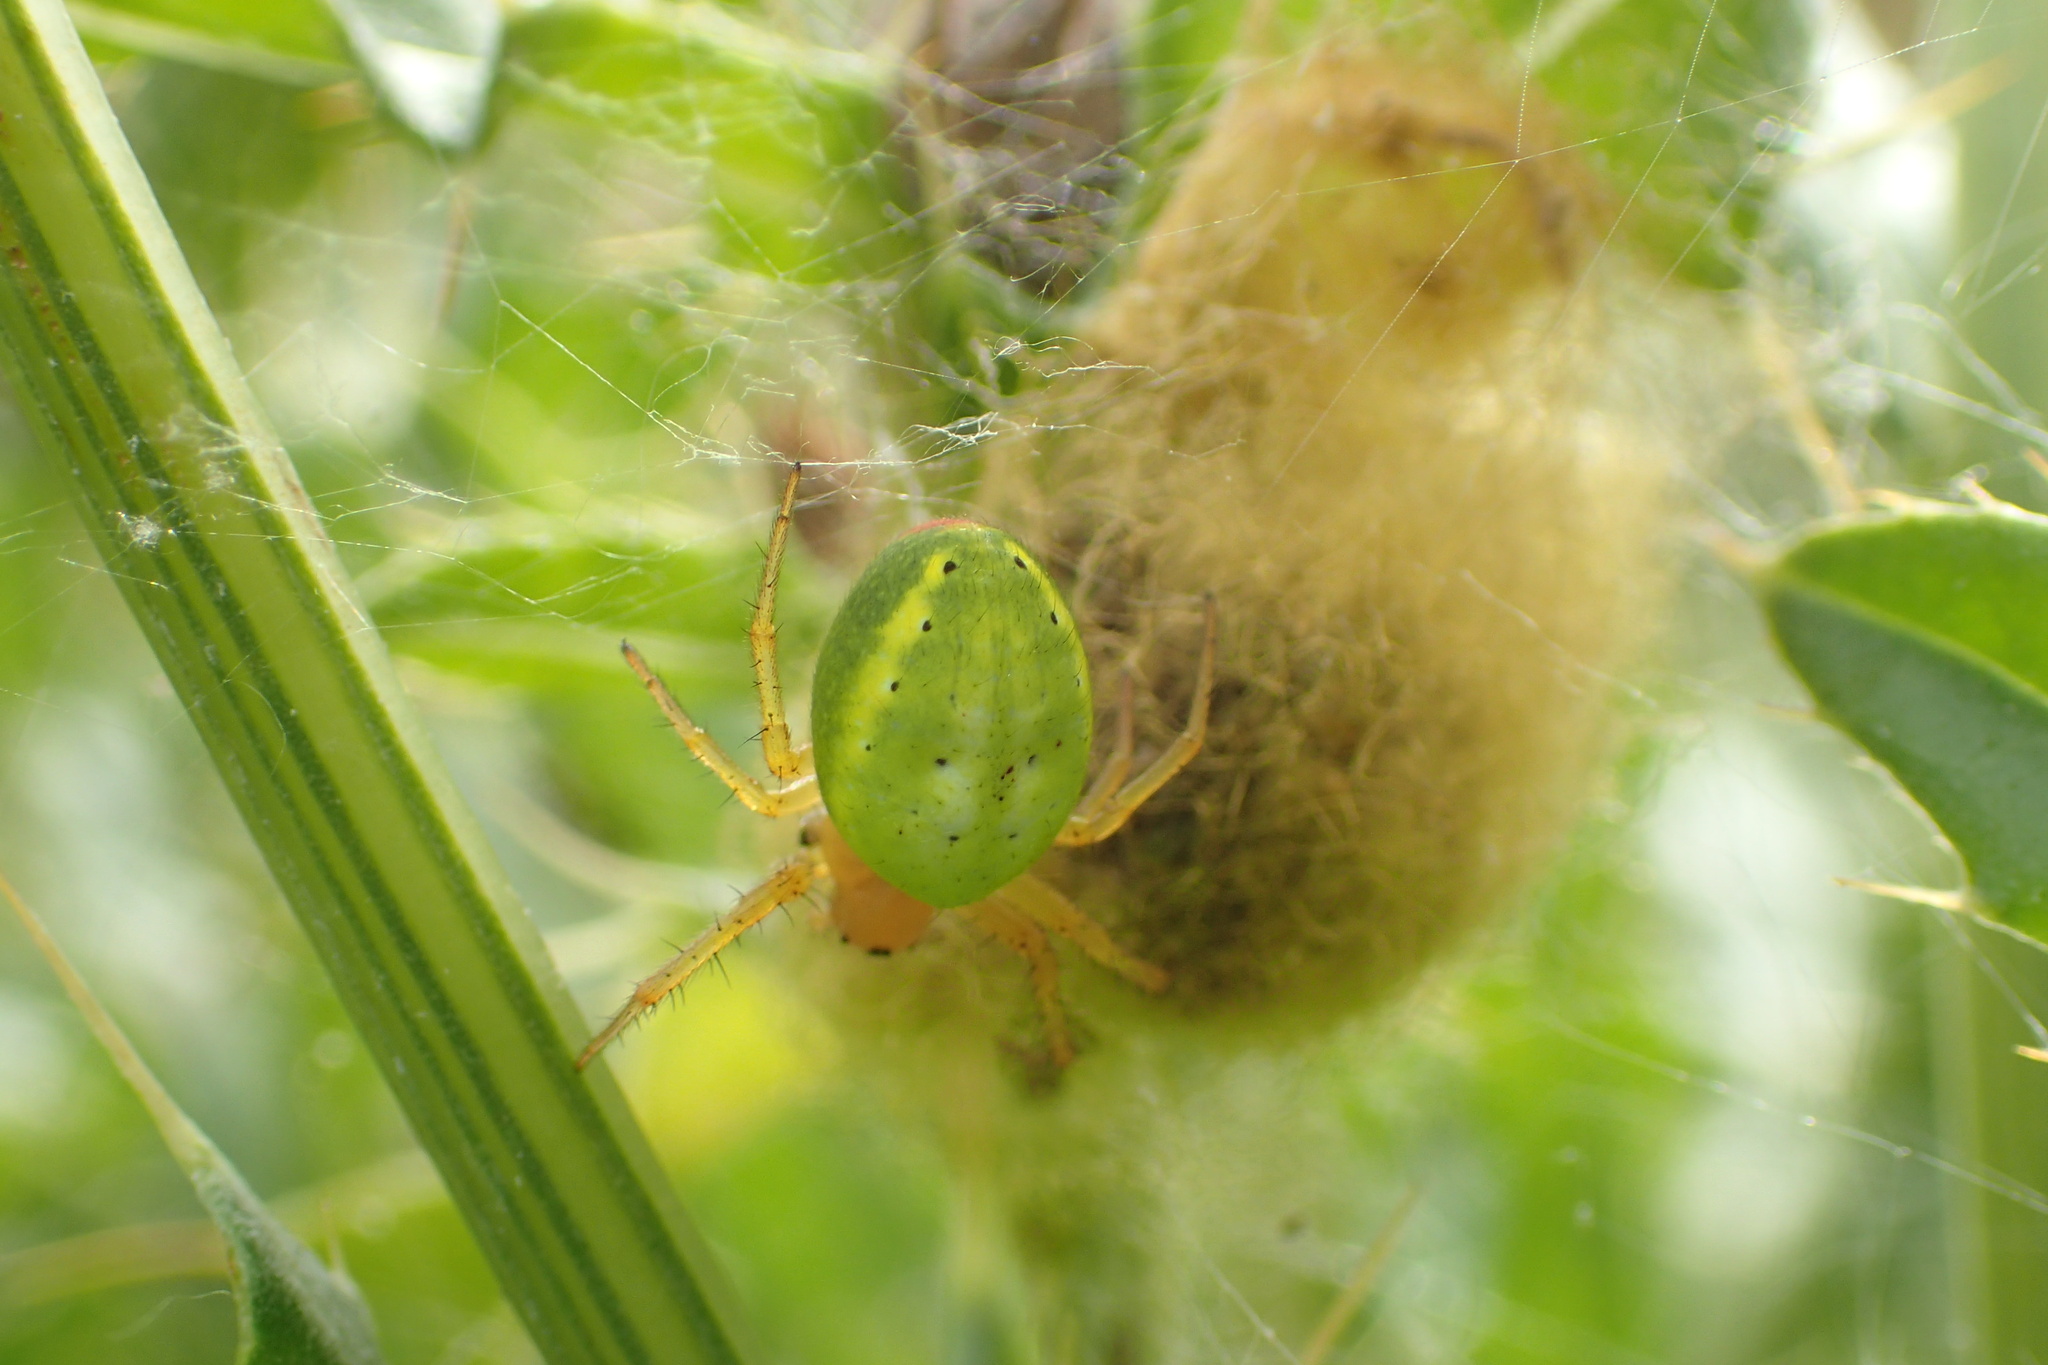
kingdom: Animalia
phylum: Arthropoda
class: Arachnida
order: Araneae
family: Araneidae
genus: Araniella
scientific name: Araniella
